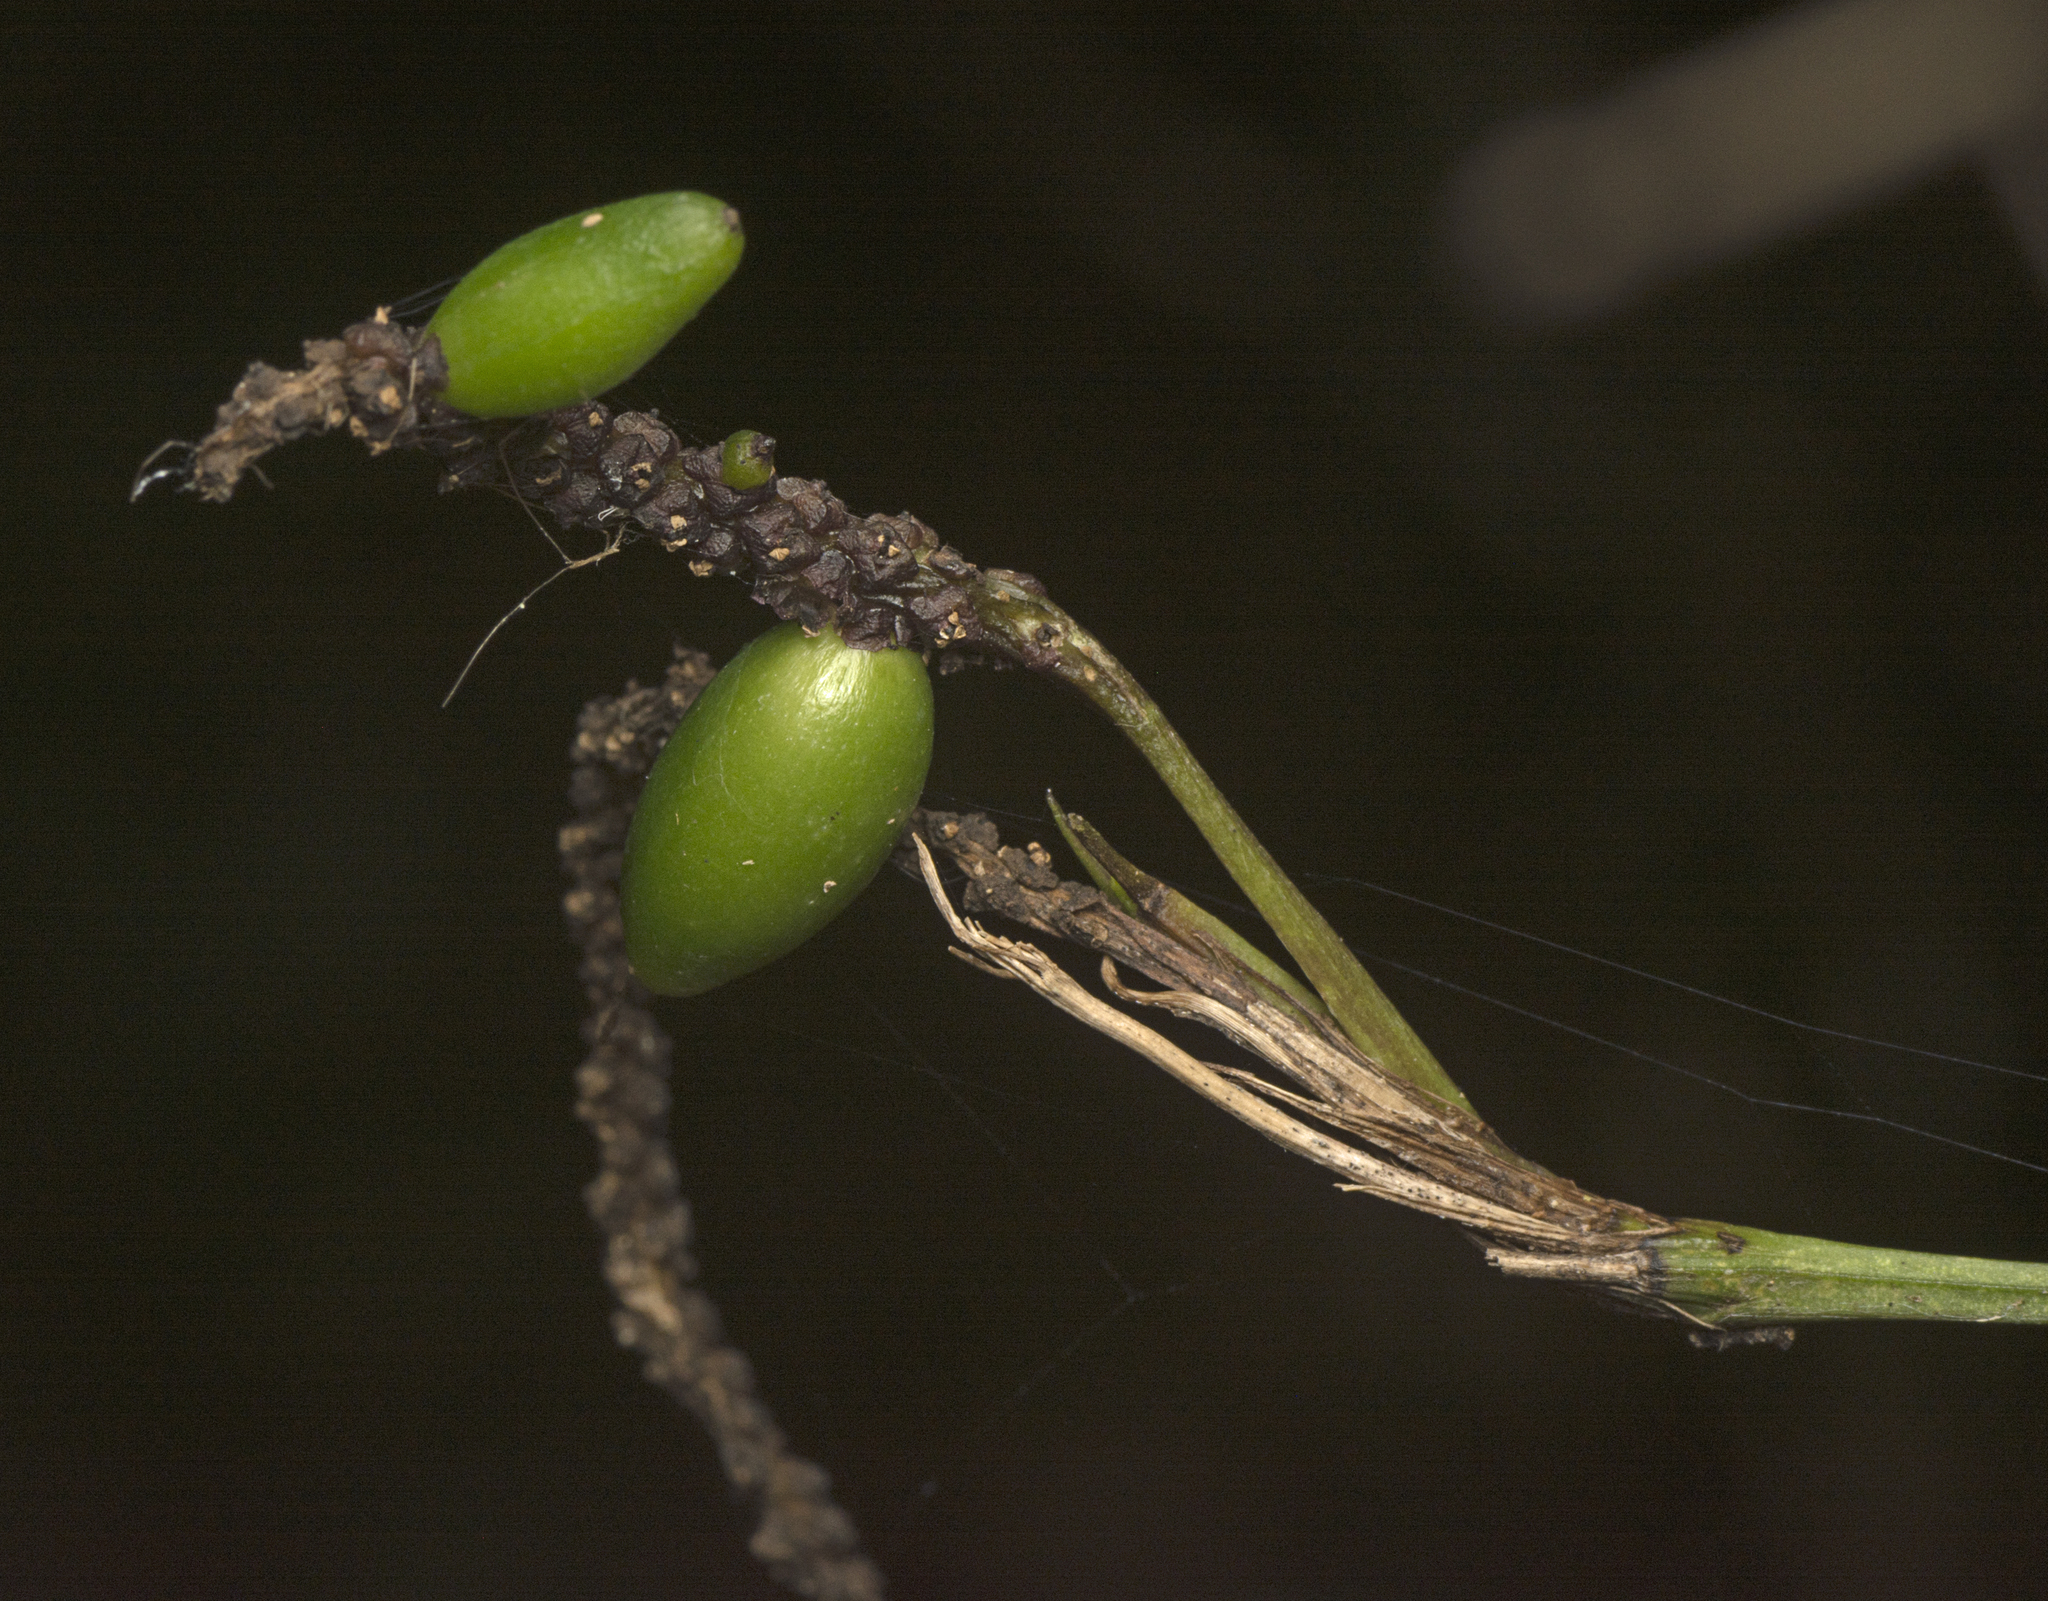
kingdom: Plantae
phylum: Tracheophyta
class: Liliopsida
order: Alismatales
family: Araceae
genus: Gymnostachys
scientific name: Gymnostachys anceps
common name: Settler's-flax
